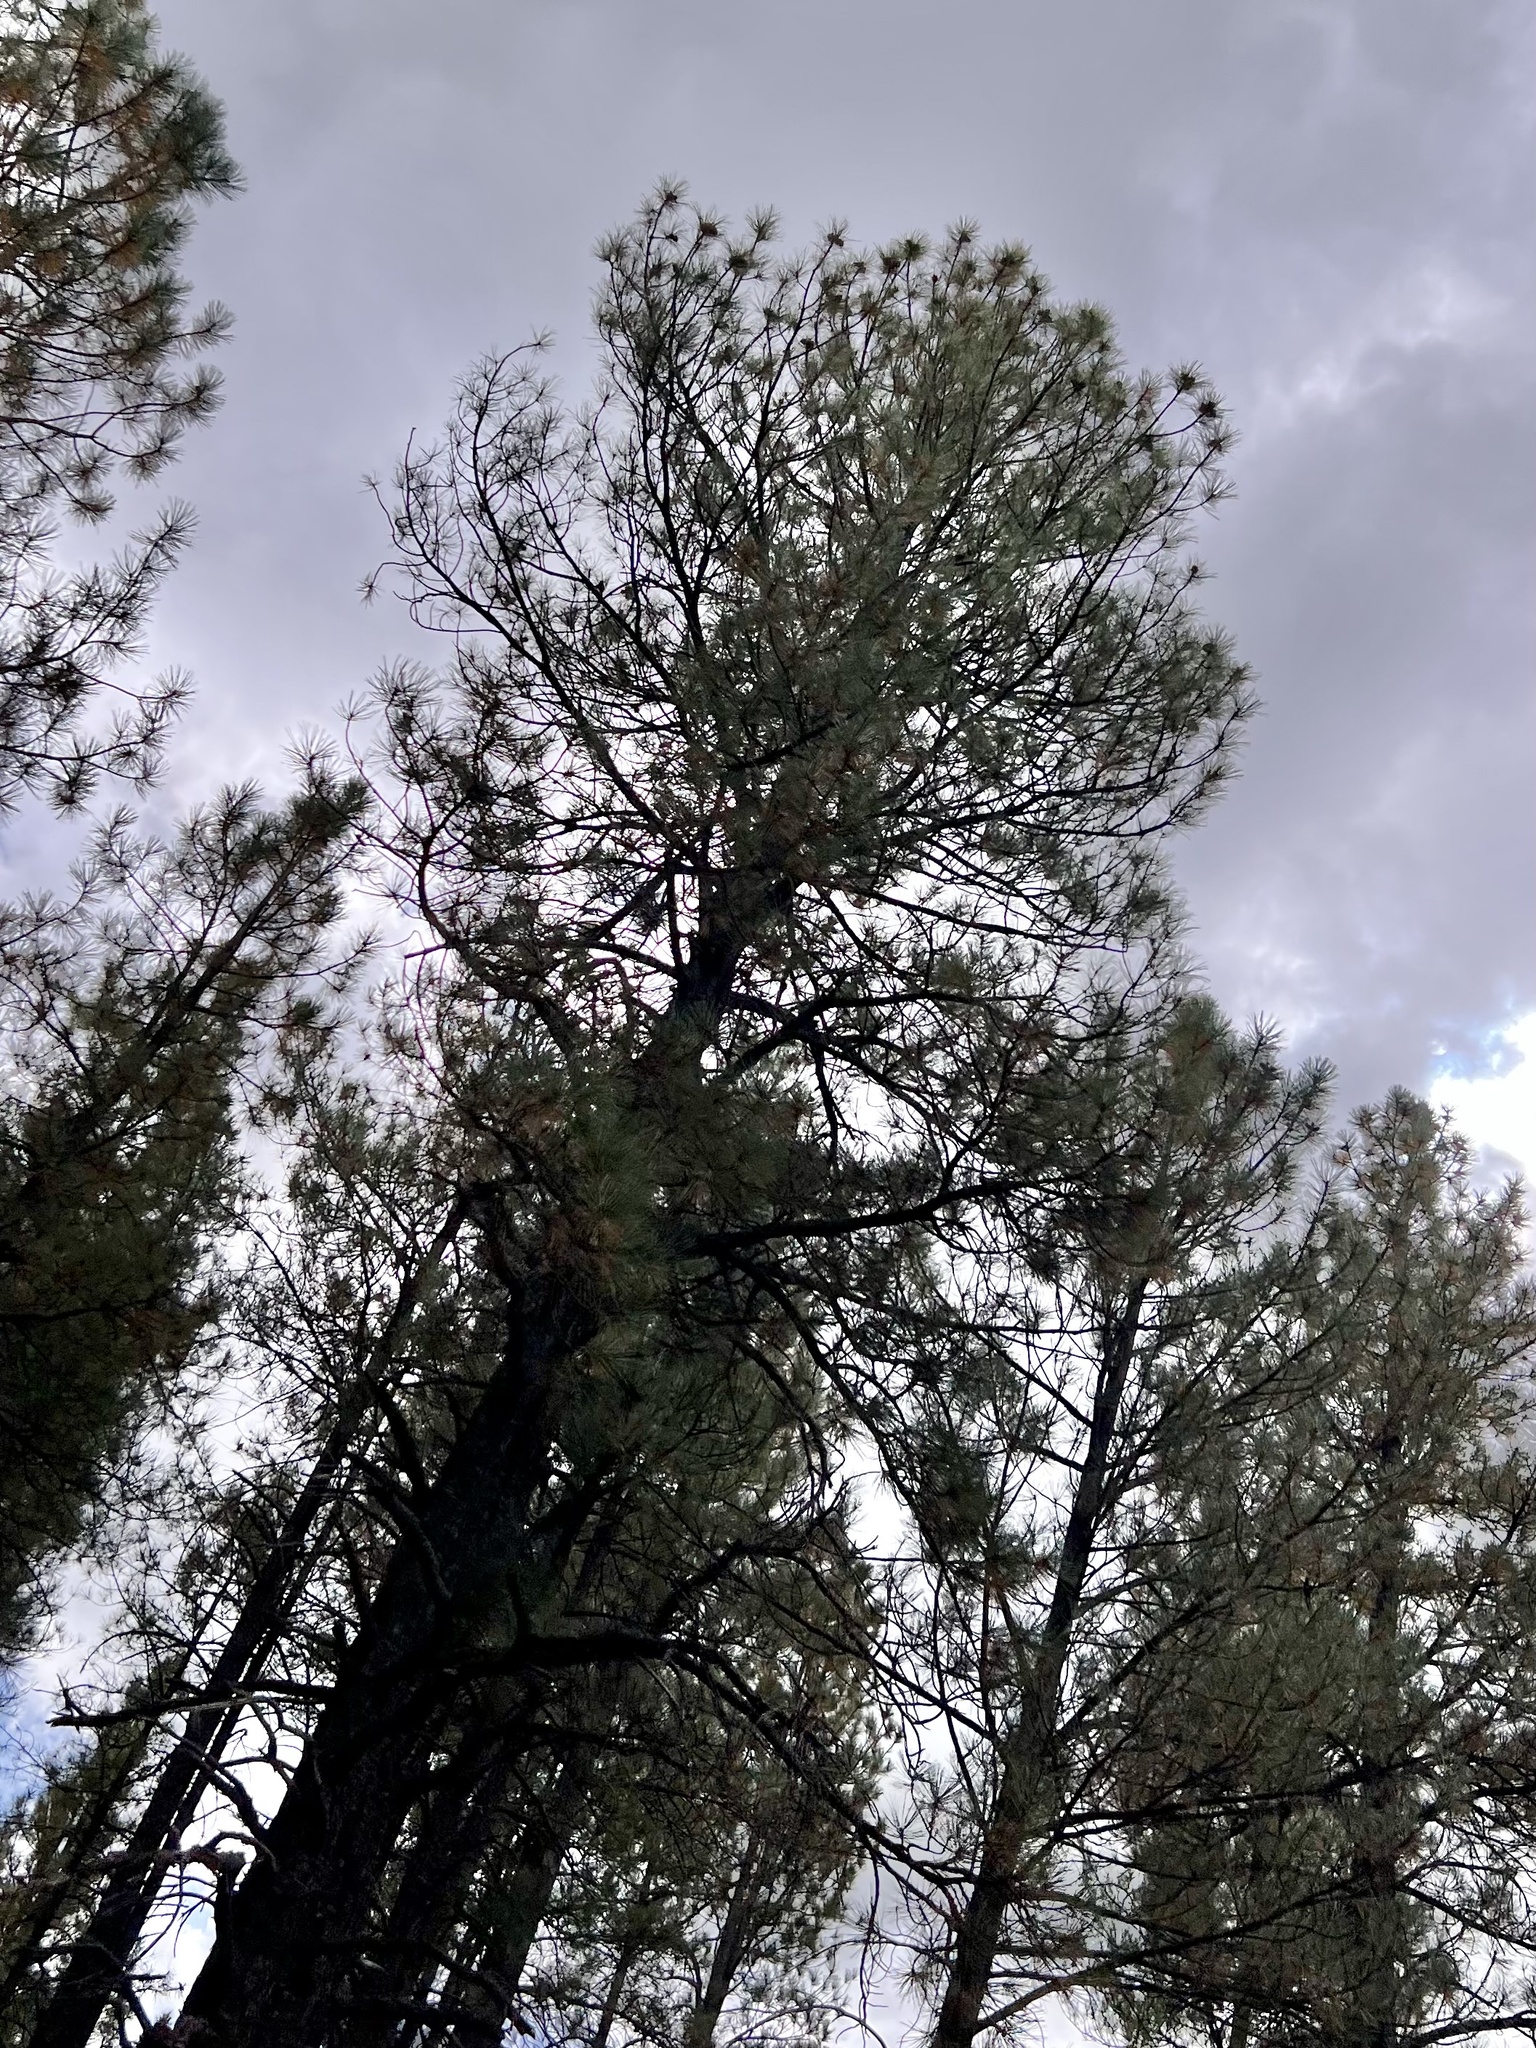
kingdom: Plantae
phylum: Tracheophyta
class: Pinopsida
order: Pinales
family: Pinaceae
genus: Pinus
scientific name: Pinus ponderosa
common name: Western yellow-pine
